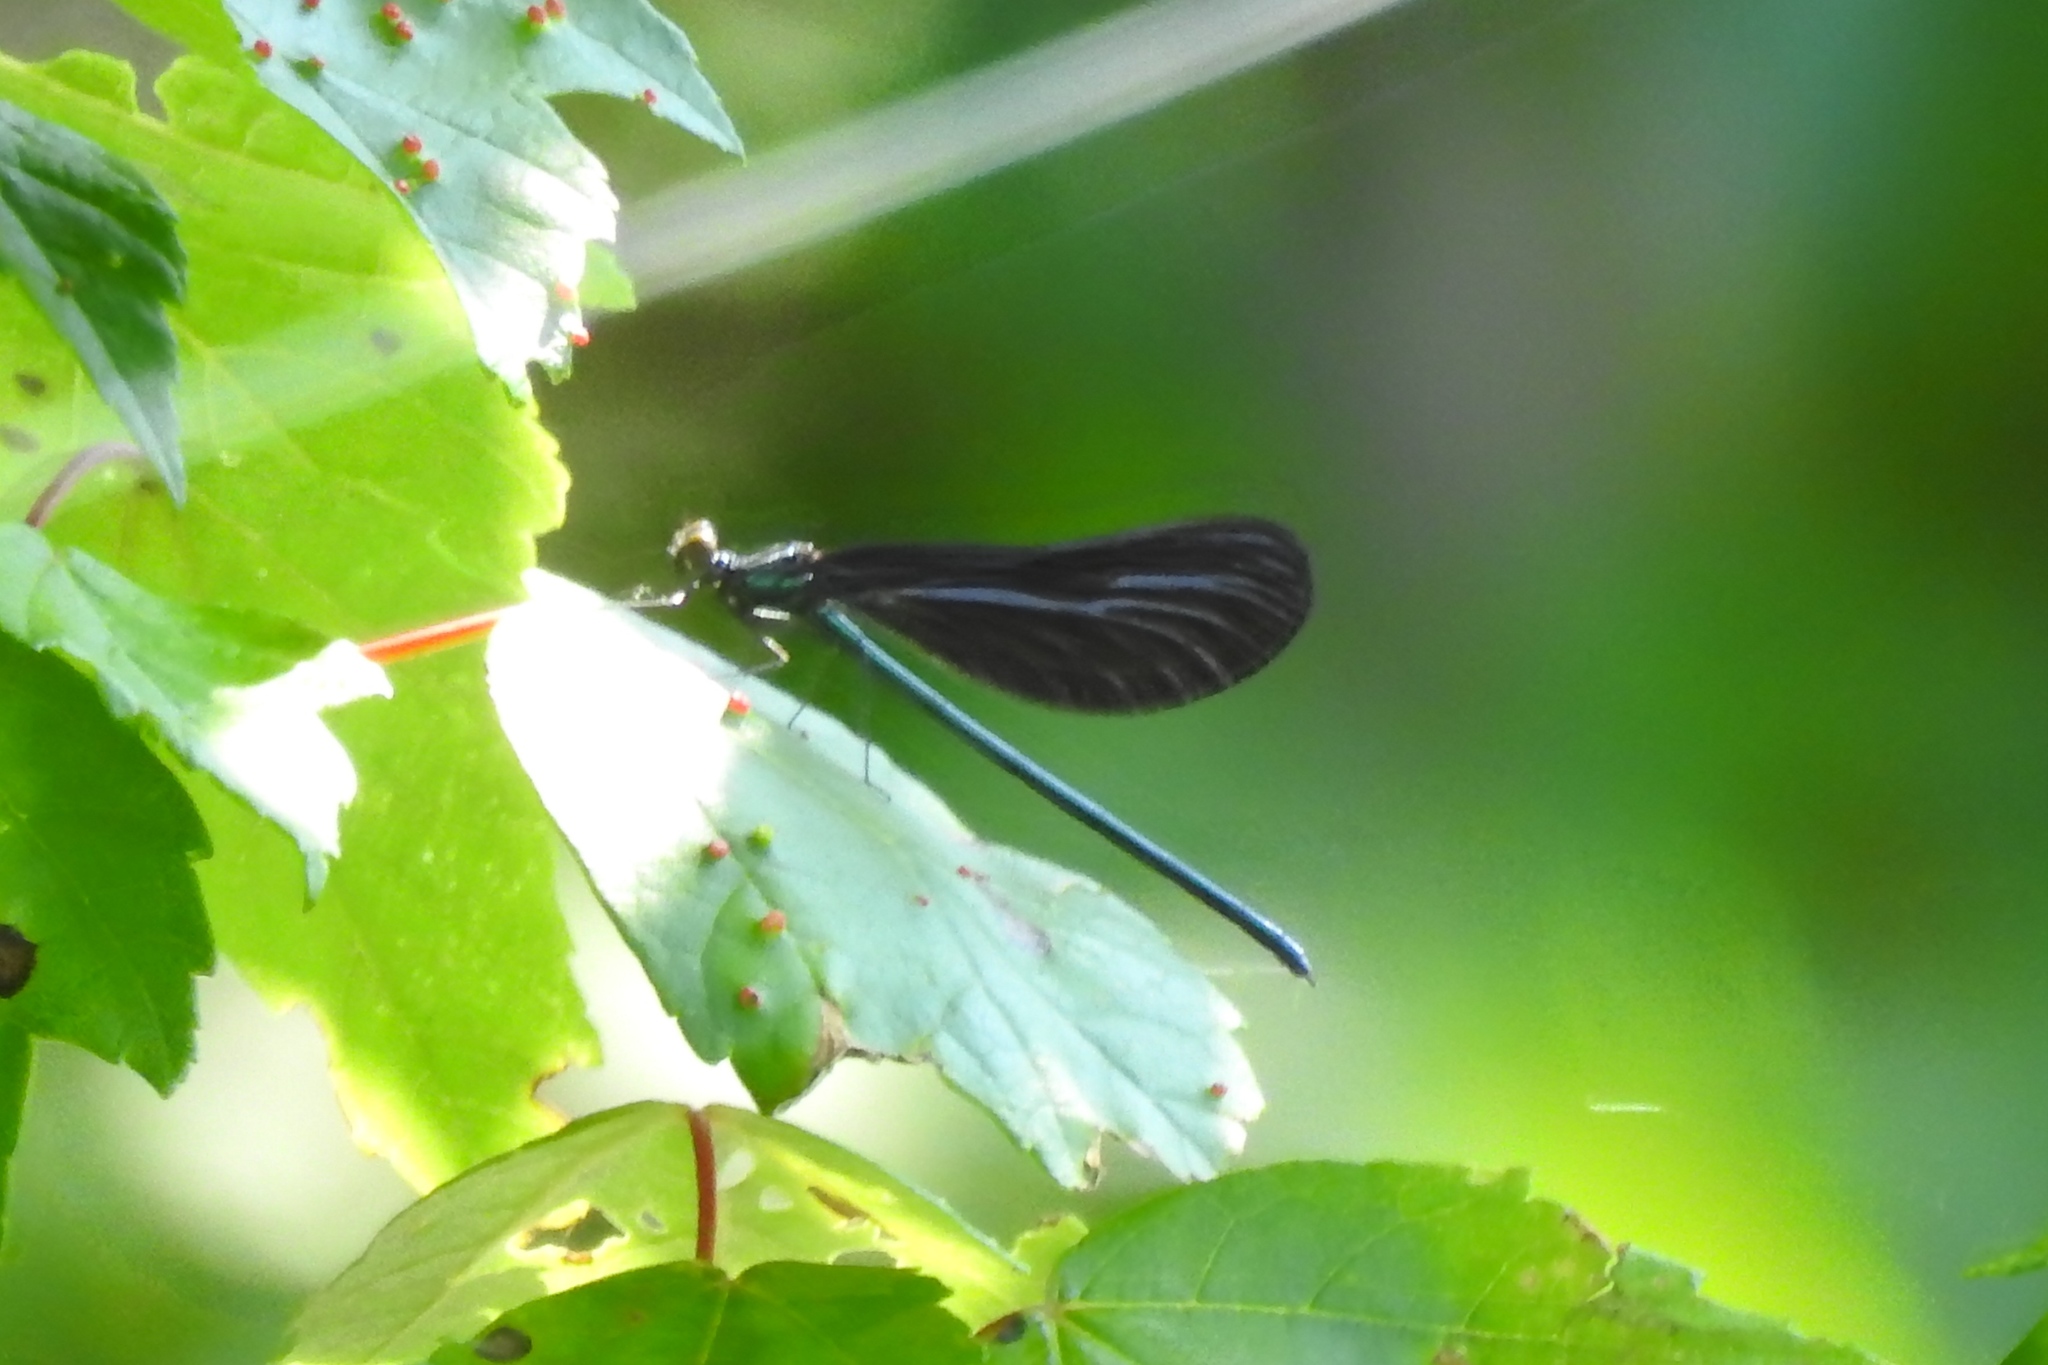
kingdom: Animalia
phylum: Arthropoda
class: Insecta
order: Odonata
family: Calopterygidae
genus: Calopteryx
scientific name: Calopteryx maculata
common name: Ebony jewelwing
